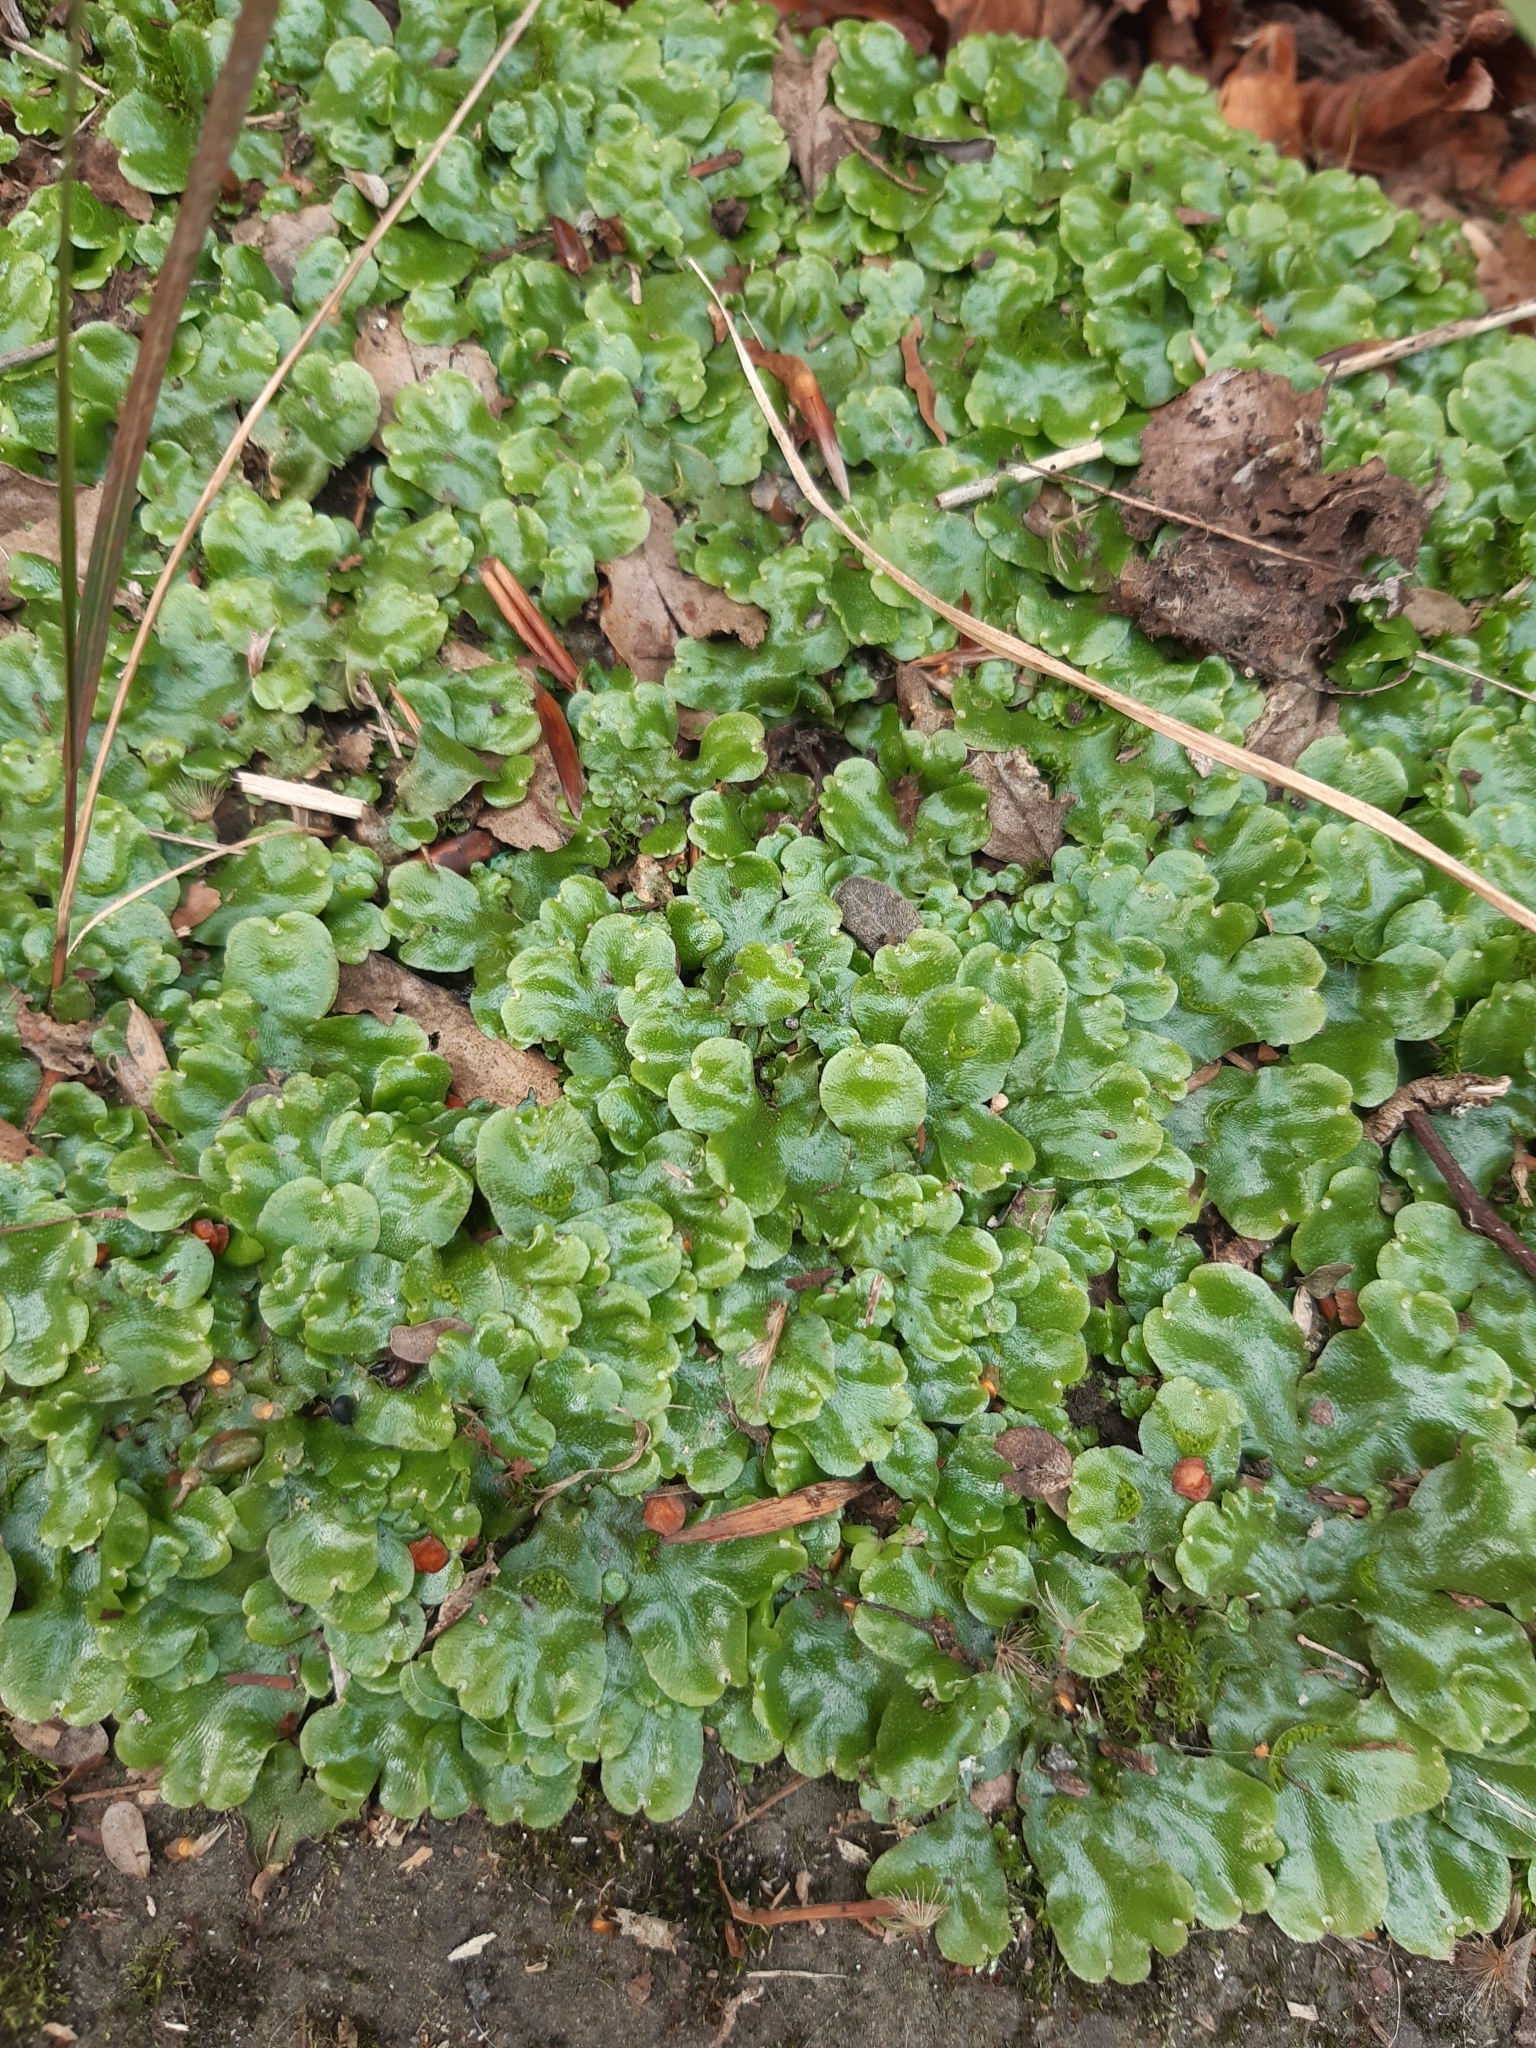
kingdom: Plantae
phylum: Marchantiophyta
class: Marchantiopsida
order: Lunulariales
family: Lunulariaceae
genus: Lunularia
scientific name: Lunularia cruciata
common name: Crescent-cup liverwort
